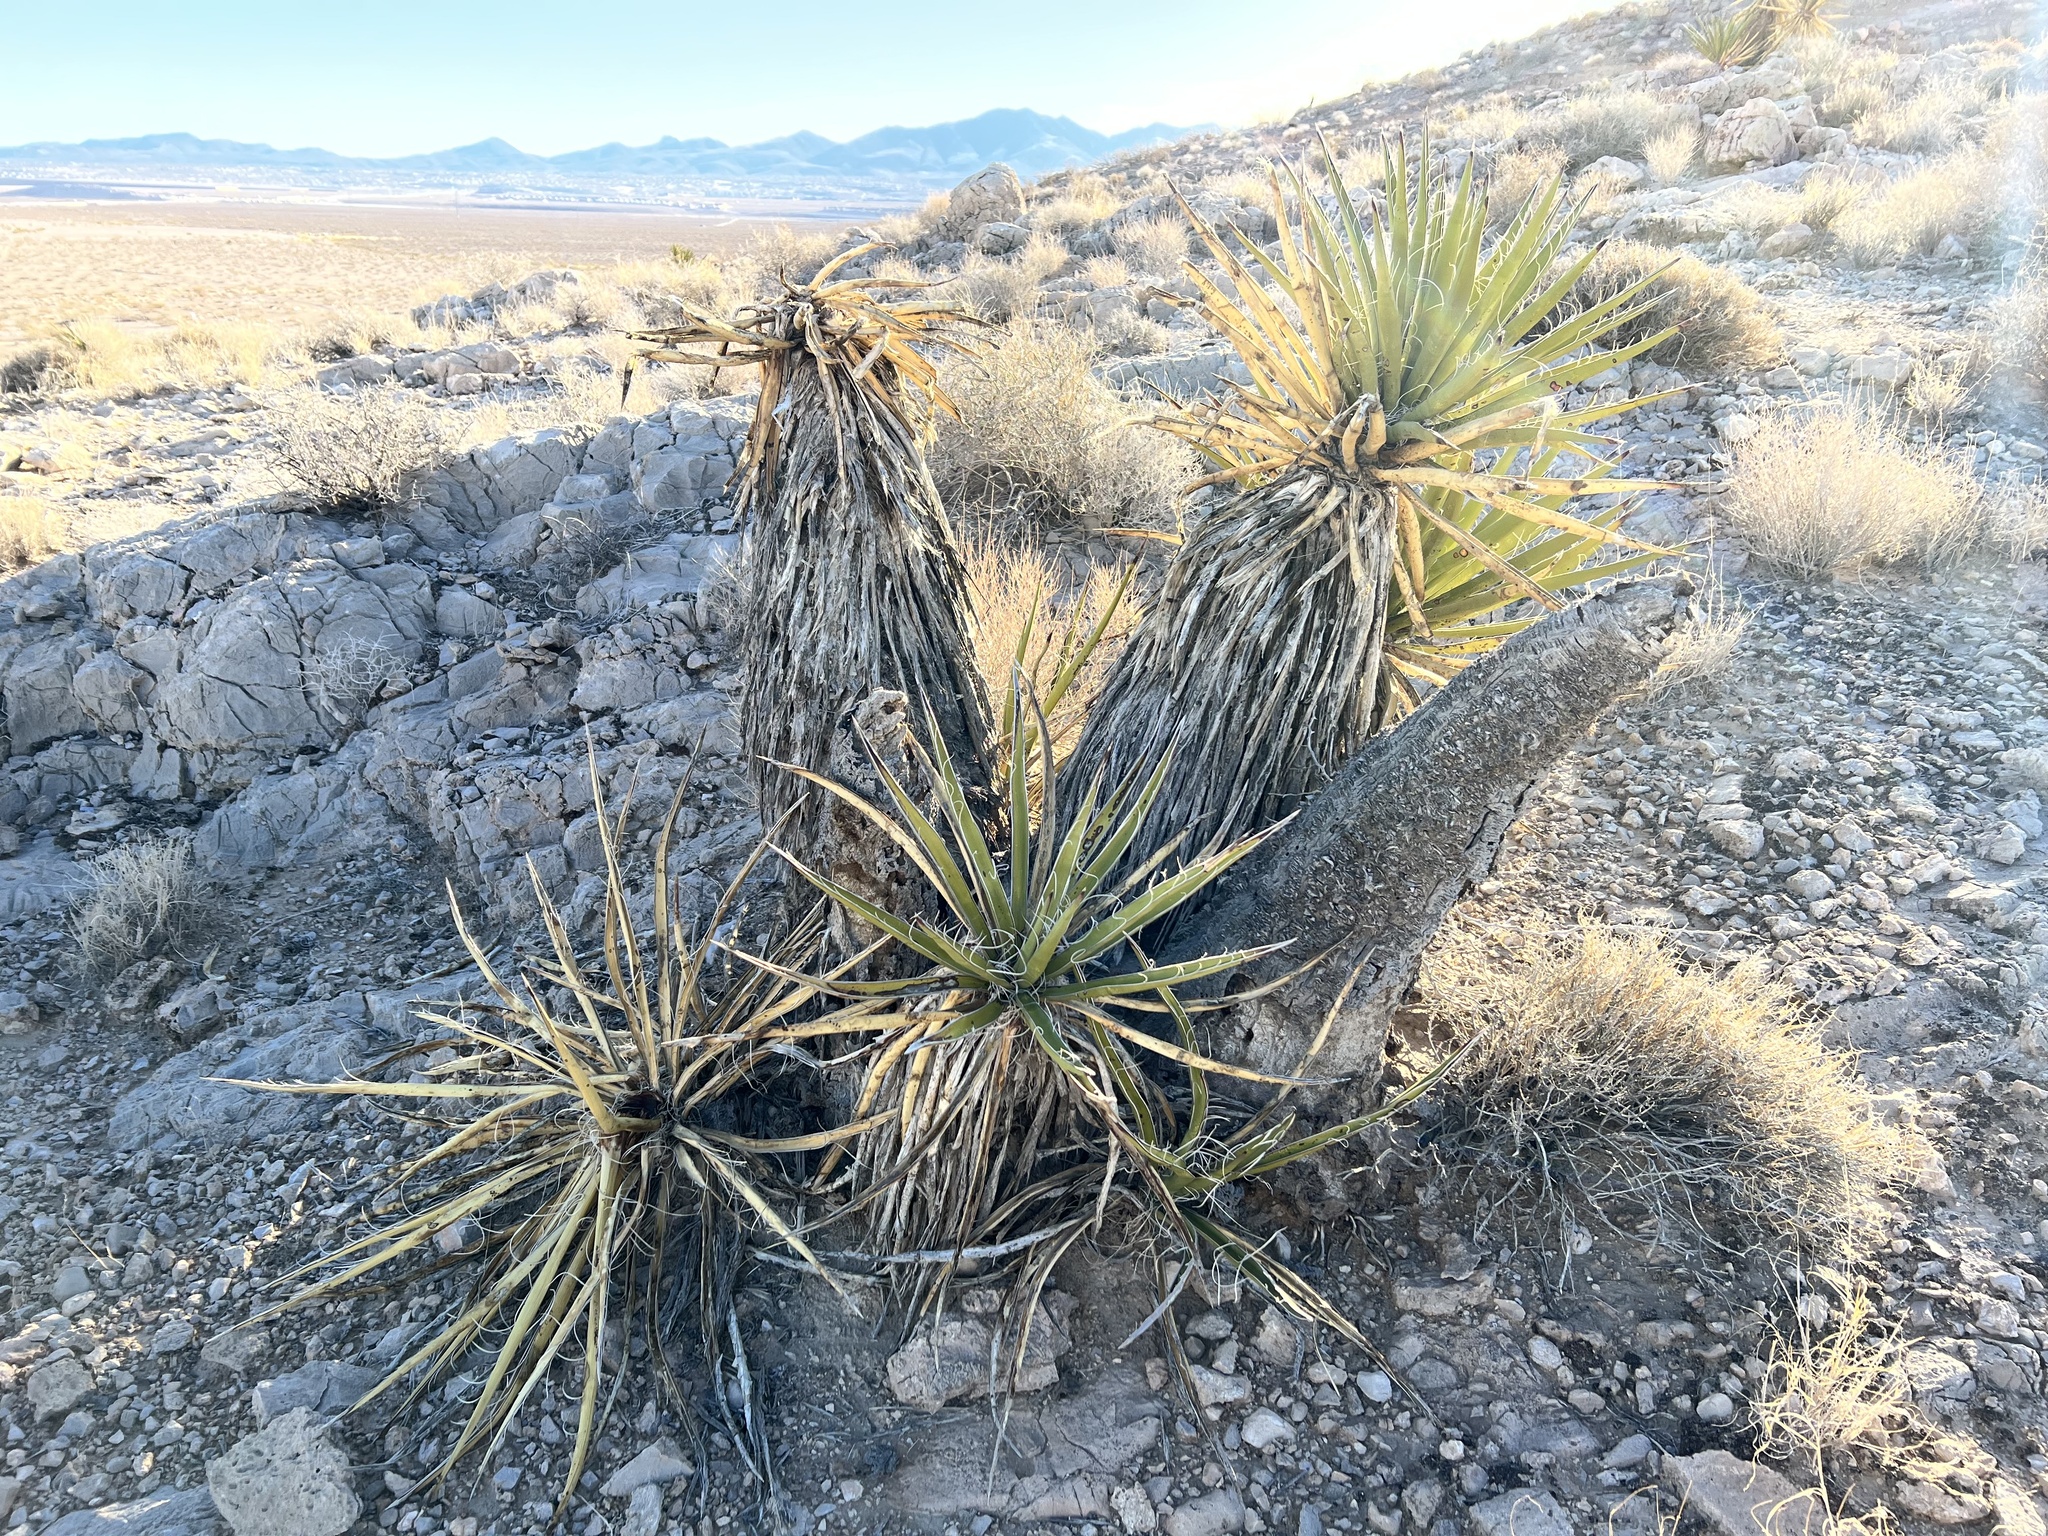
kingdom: Plantae
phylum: Tracheophyta
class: Liliopsida
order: Asparagales
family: Asparagaceae
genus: Yucca
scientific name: Yucca schidigera
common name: Mojave yucca
